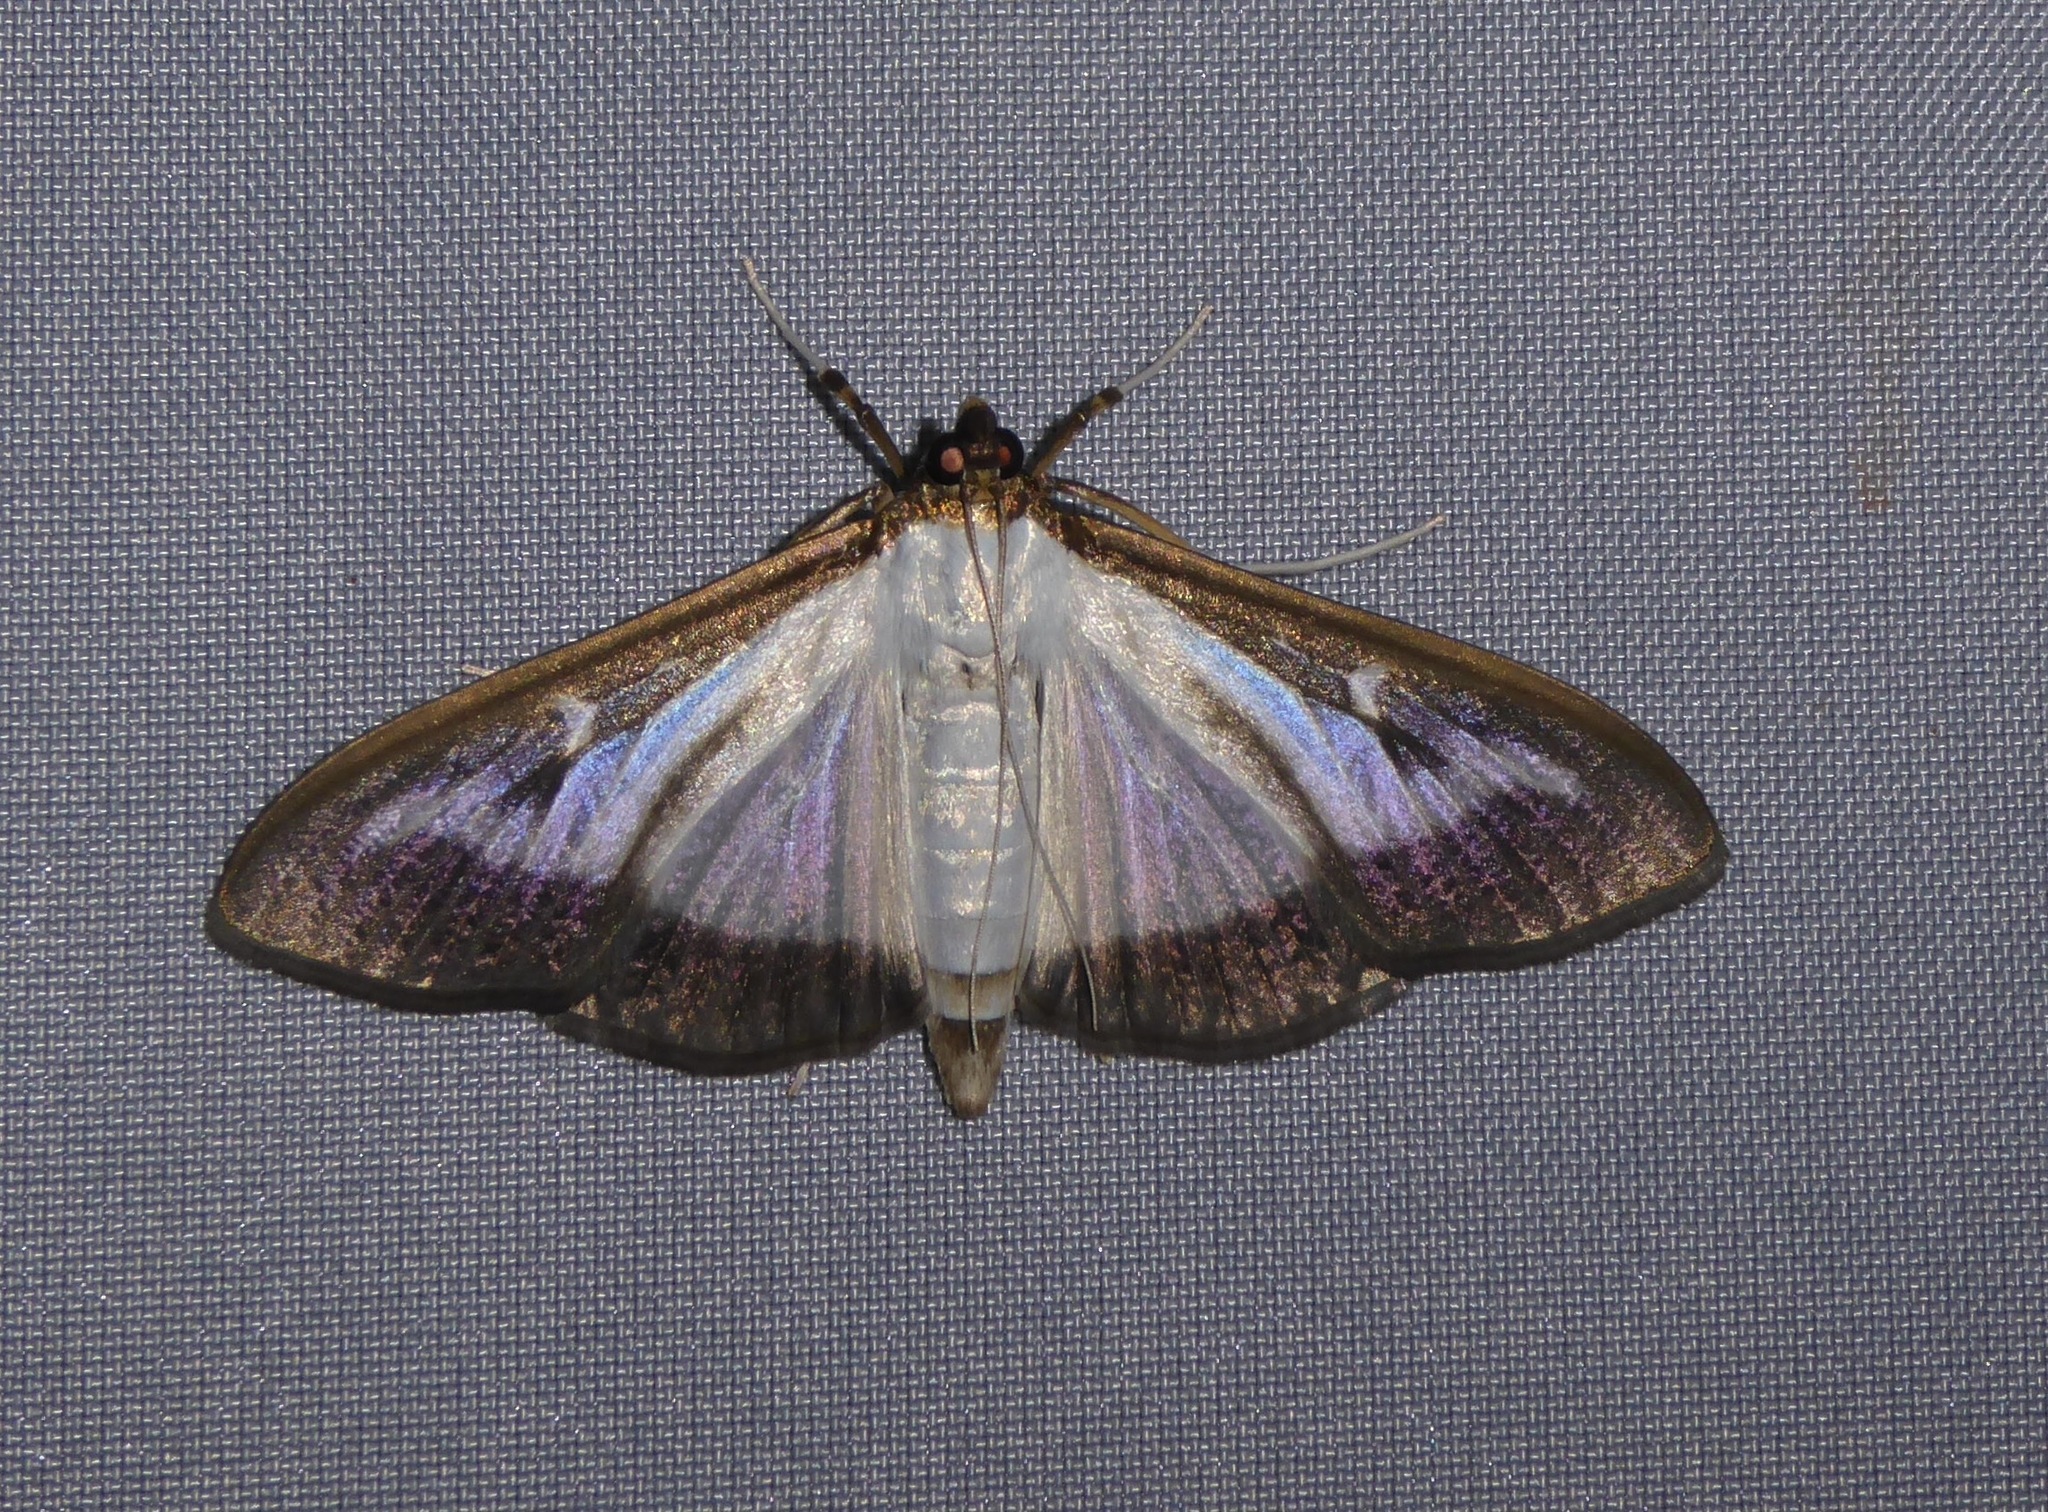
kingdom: Animalia
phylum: Arthropoda
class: Insecta
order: Lepidoptera
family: Crambidae
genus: Cydalima
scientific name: Cydalima perspectalis
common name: Box tree moth
